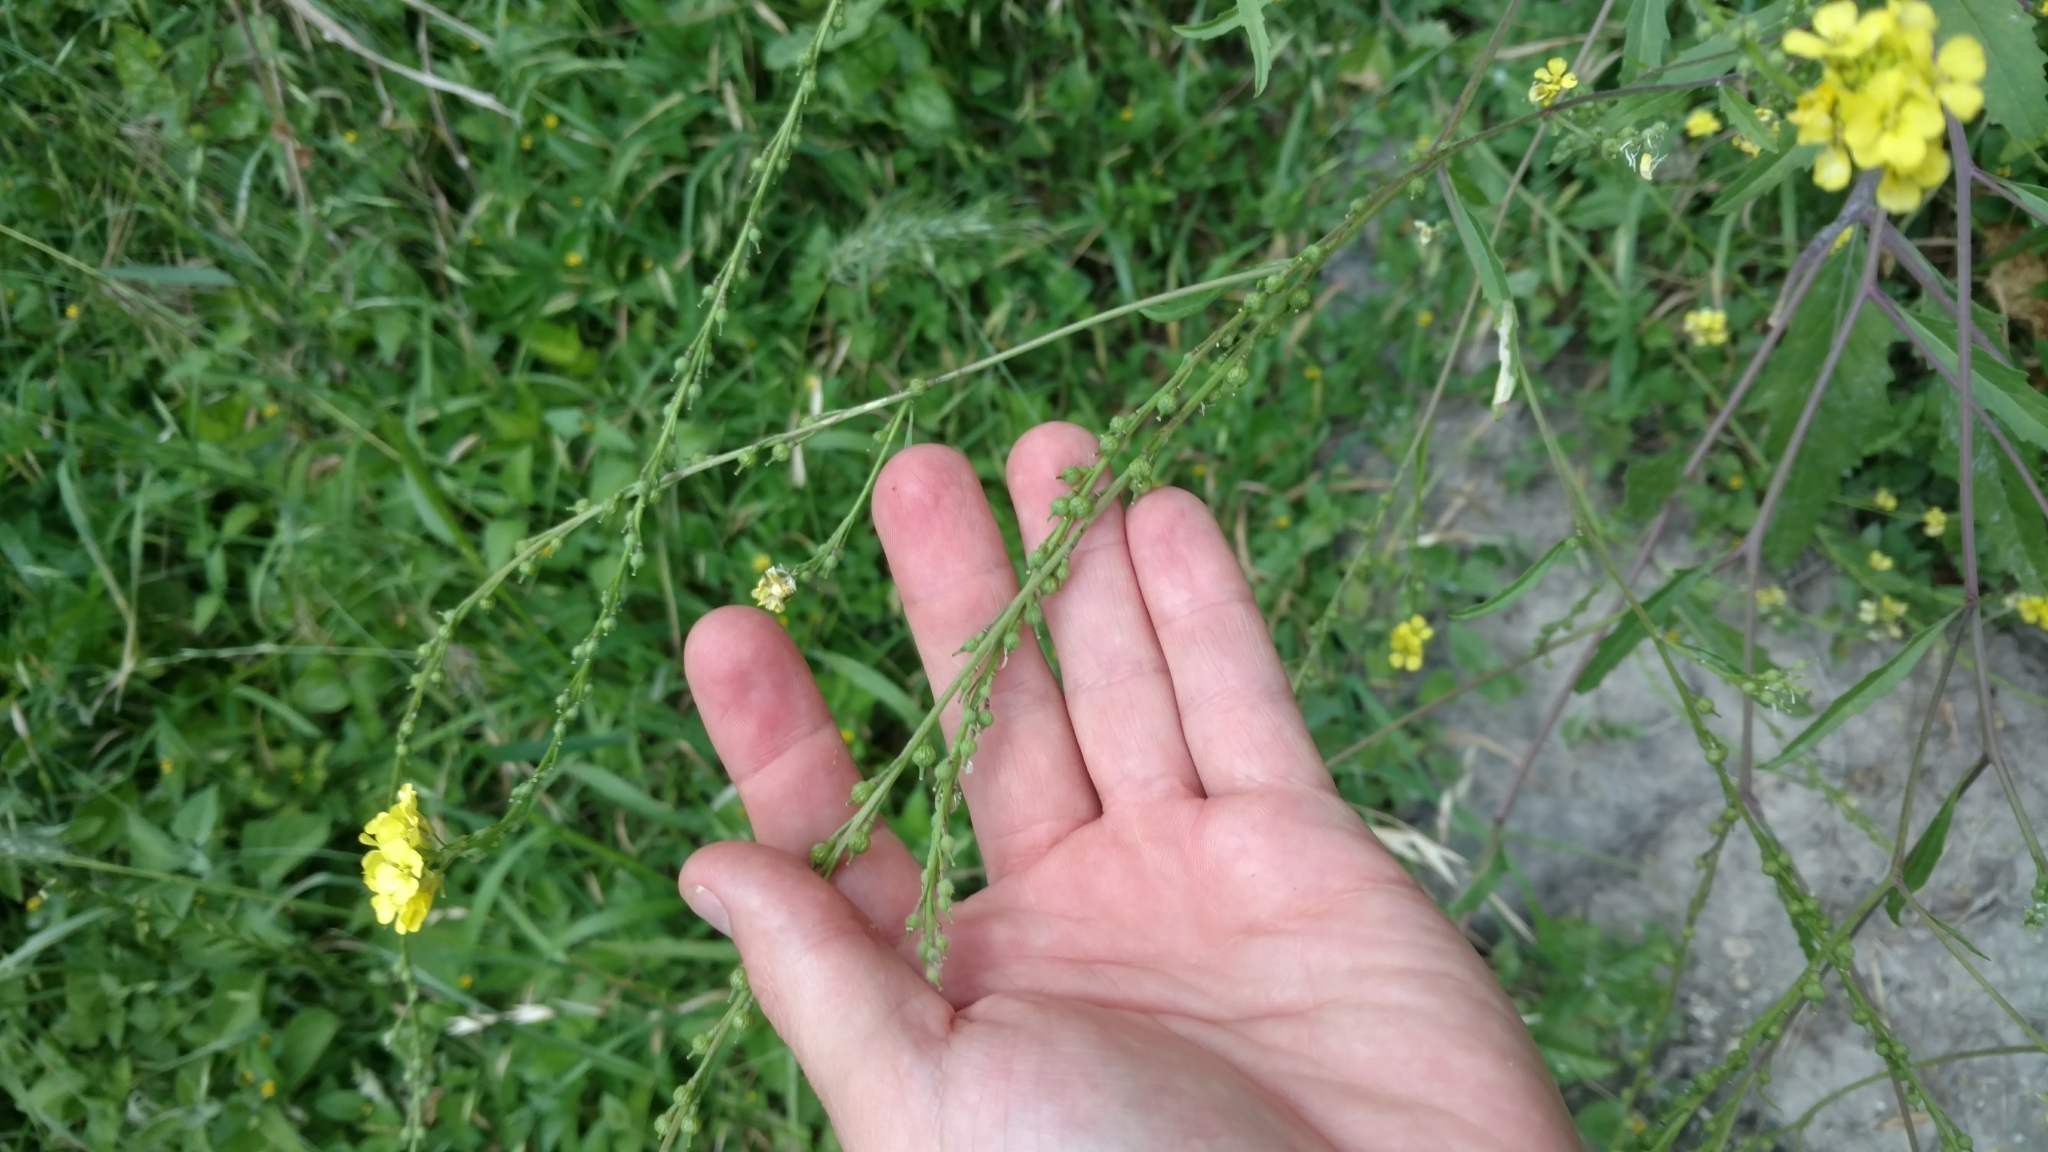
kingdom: Plantae
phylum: Tracheophyta
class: Magnoliopsida
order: Brassicales
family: Brassicaceae
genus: Rapistrum
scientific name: Rapistrum rugosum
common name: Annual bastardcabbage
